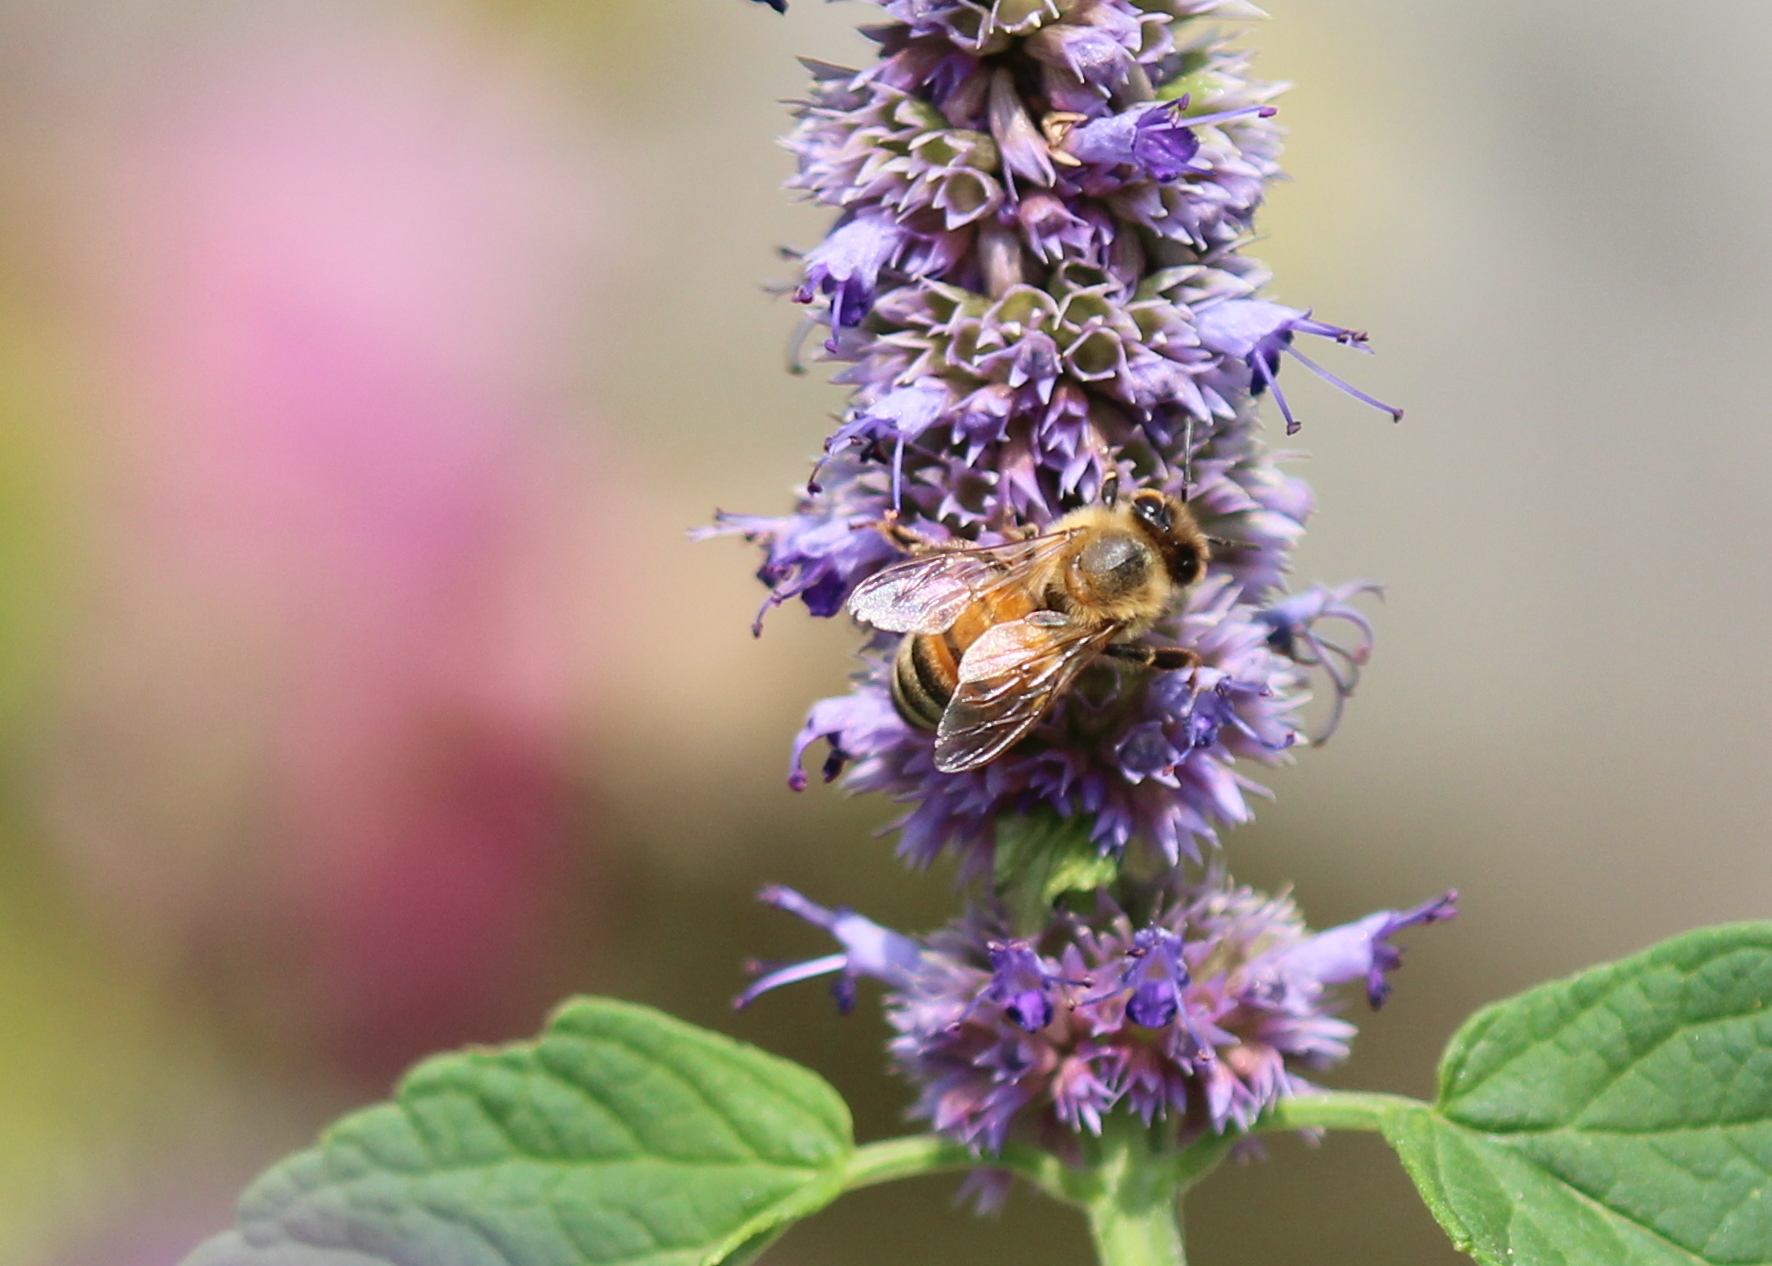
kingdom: Animalia
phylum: Arthropoda
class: Insecta
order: Hymenoptera
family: Apidae
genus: Apis
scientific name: Apis mellifera
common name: Honey bee
